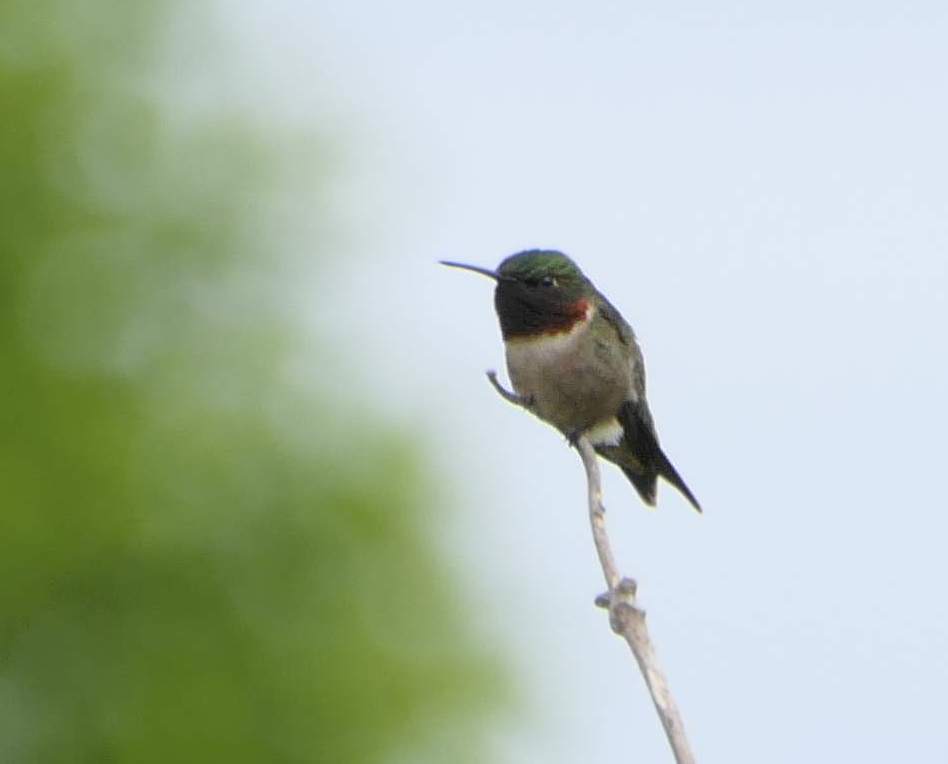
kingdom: Animalia
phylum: Chordata
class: Aves
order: Apodiformes
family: Trochilidae
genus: Archilochus
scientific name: Archilochus colubris
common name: Ruby-throated hummingbird
